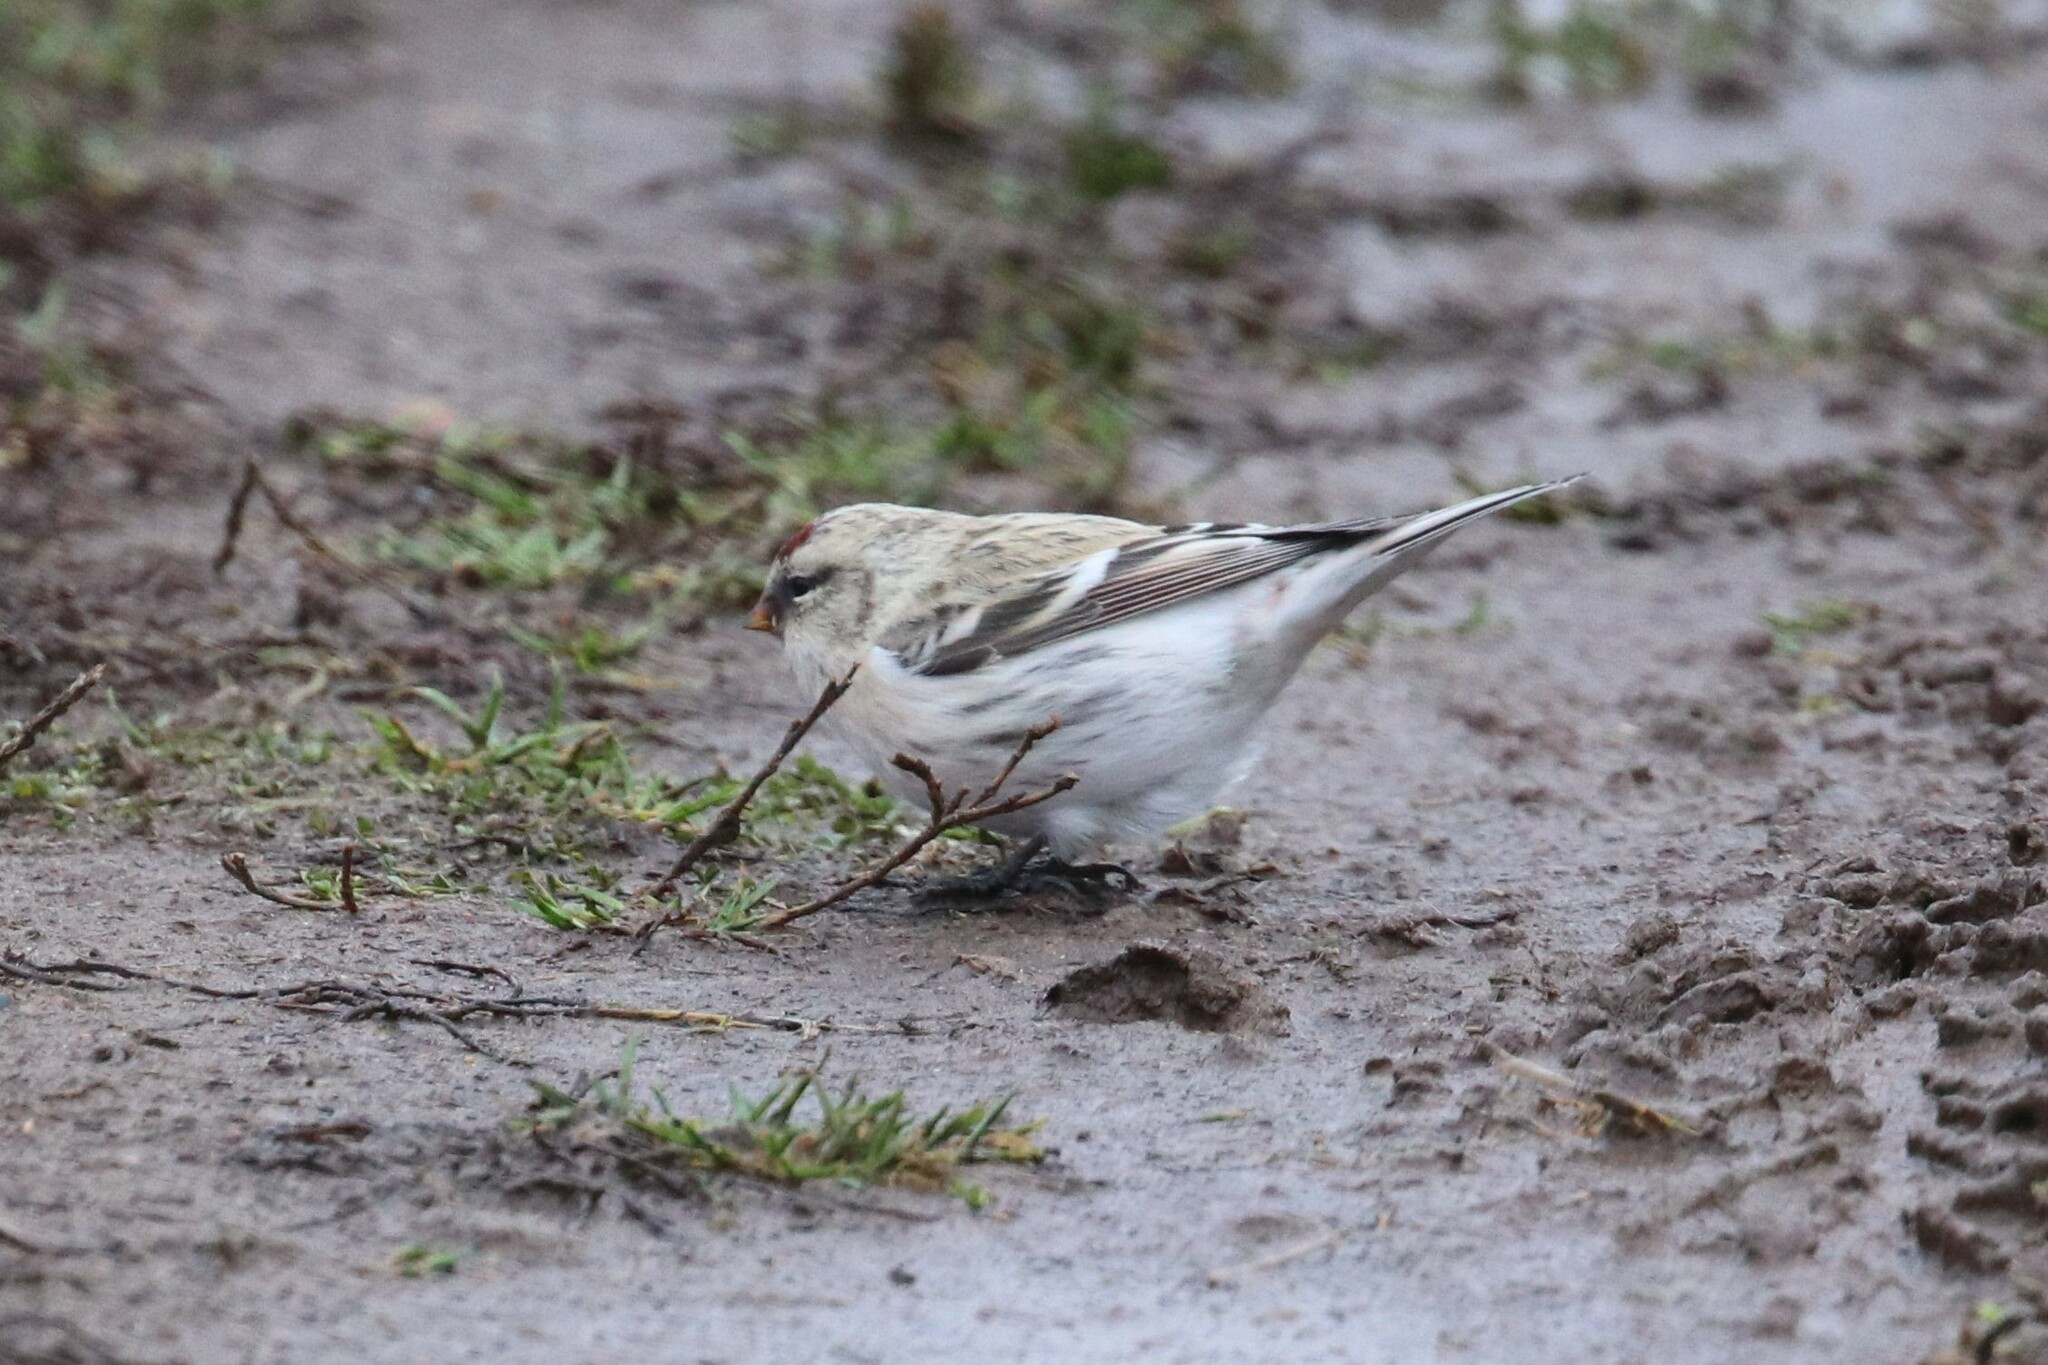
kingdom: Animalia
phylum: Chordata
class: Aves
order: Passeriformes
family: Fringillidae
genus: Acanthis
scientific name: Acanthis hornemanni
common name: Arctic redpoll
